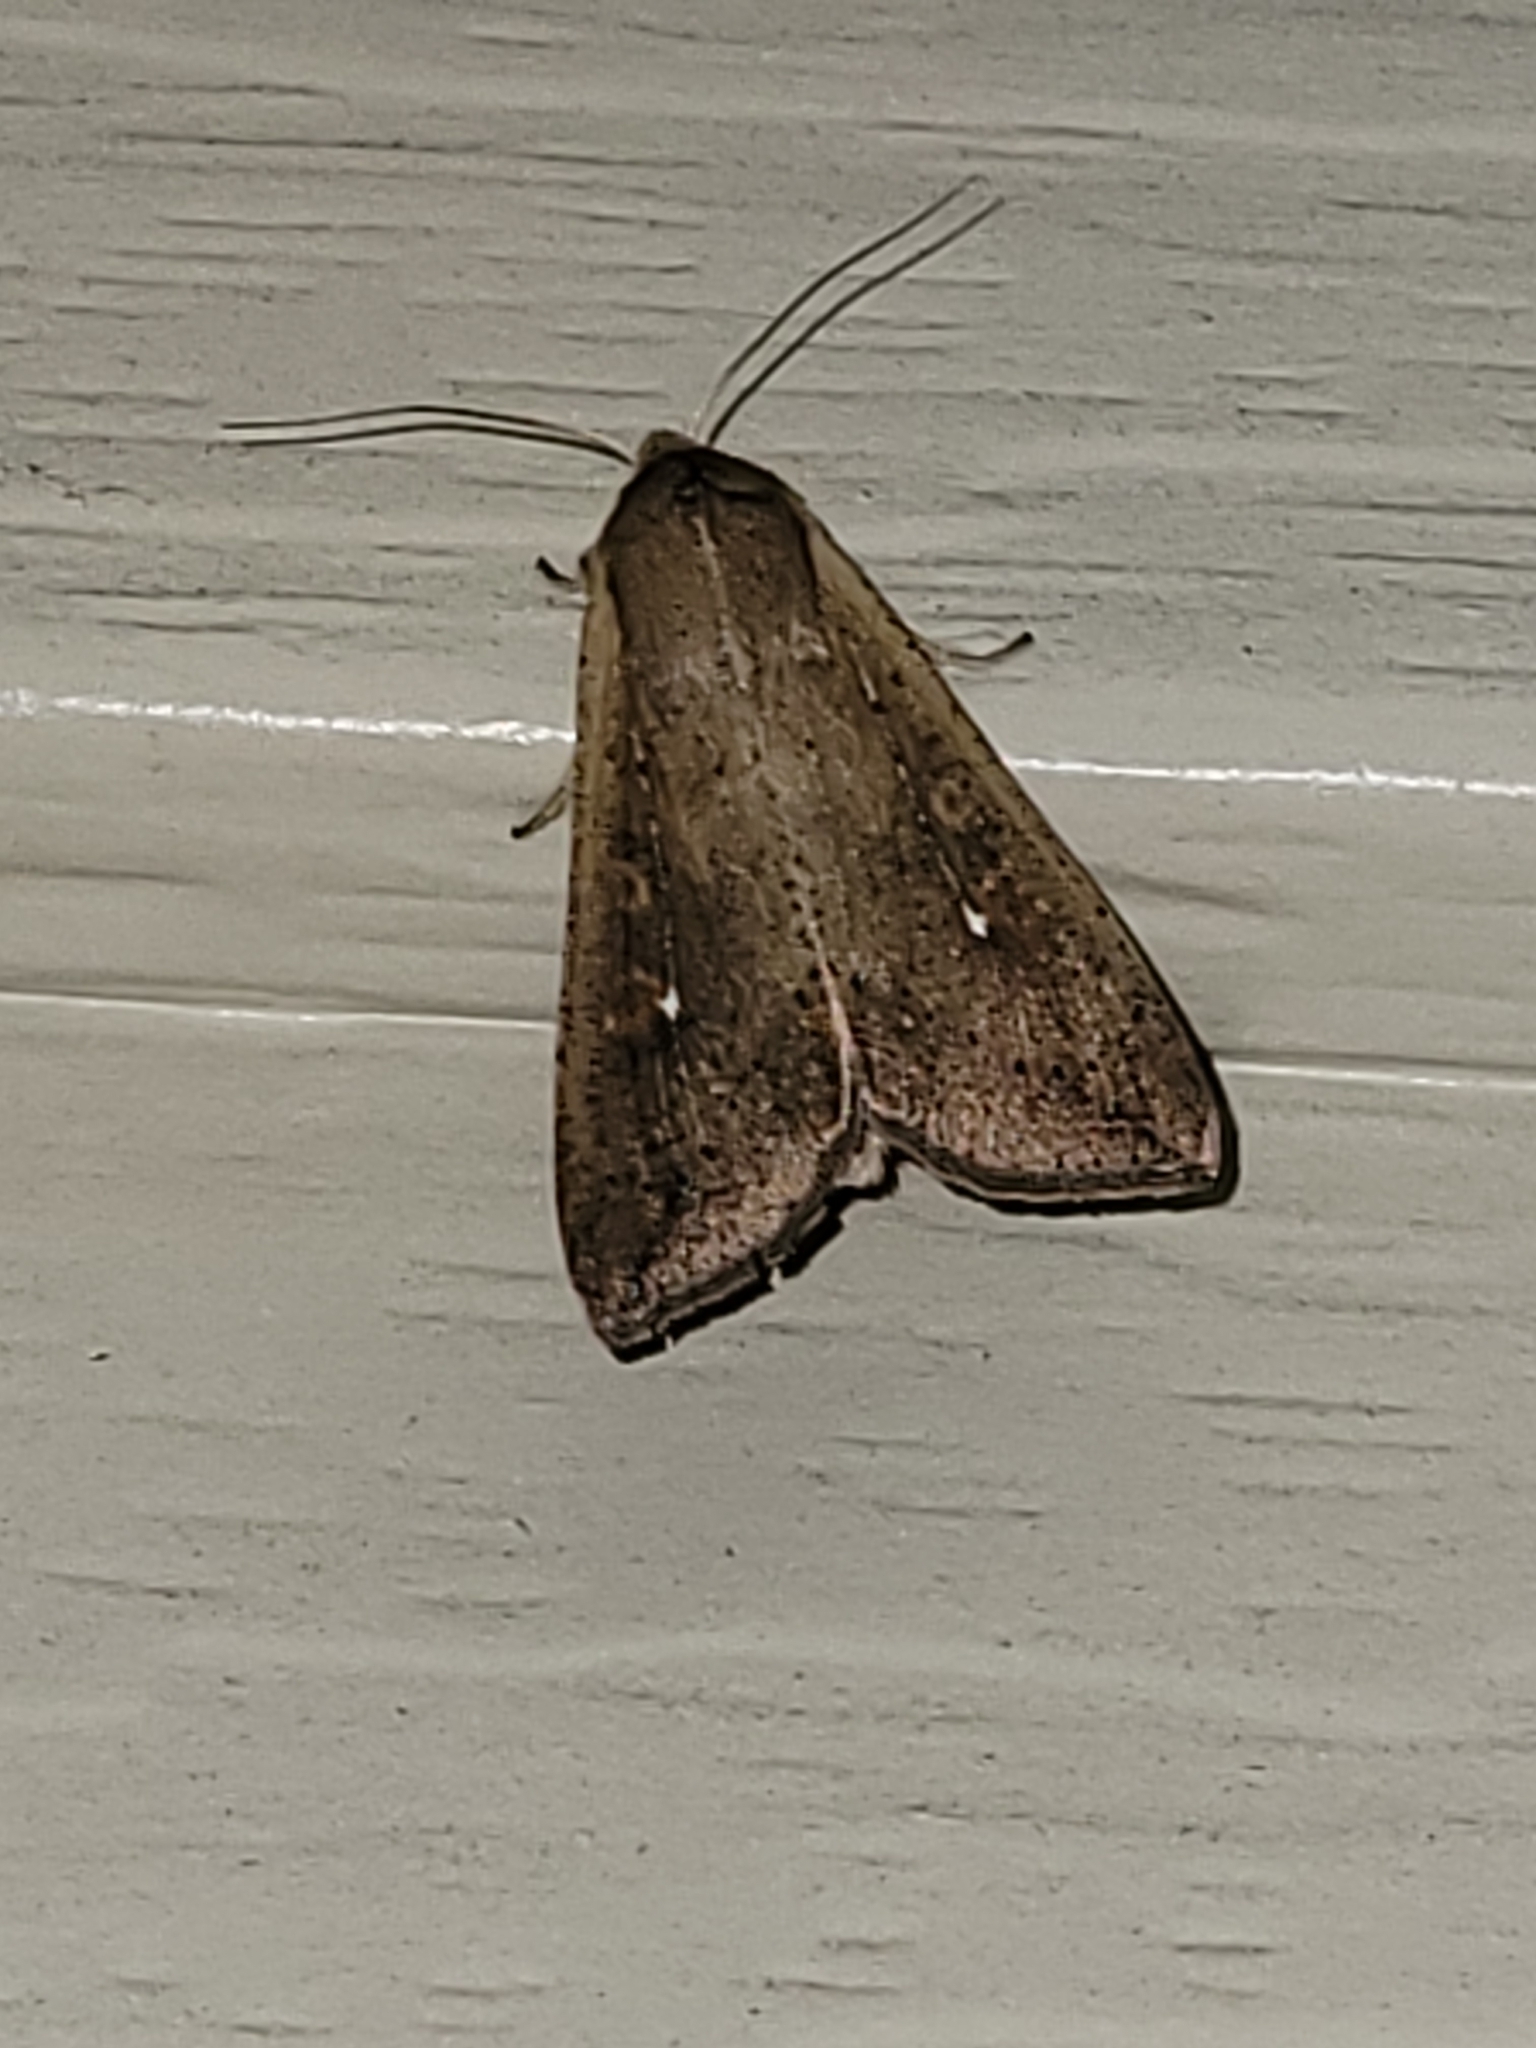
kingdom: Animalia
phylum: Arthropoda
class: Insecta
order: Lepidoptera
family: Noctuidae
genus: Mythimna
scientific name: Mythimna unipuncta
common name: White-speck
